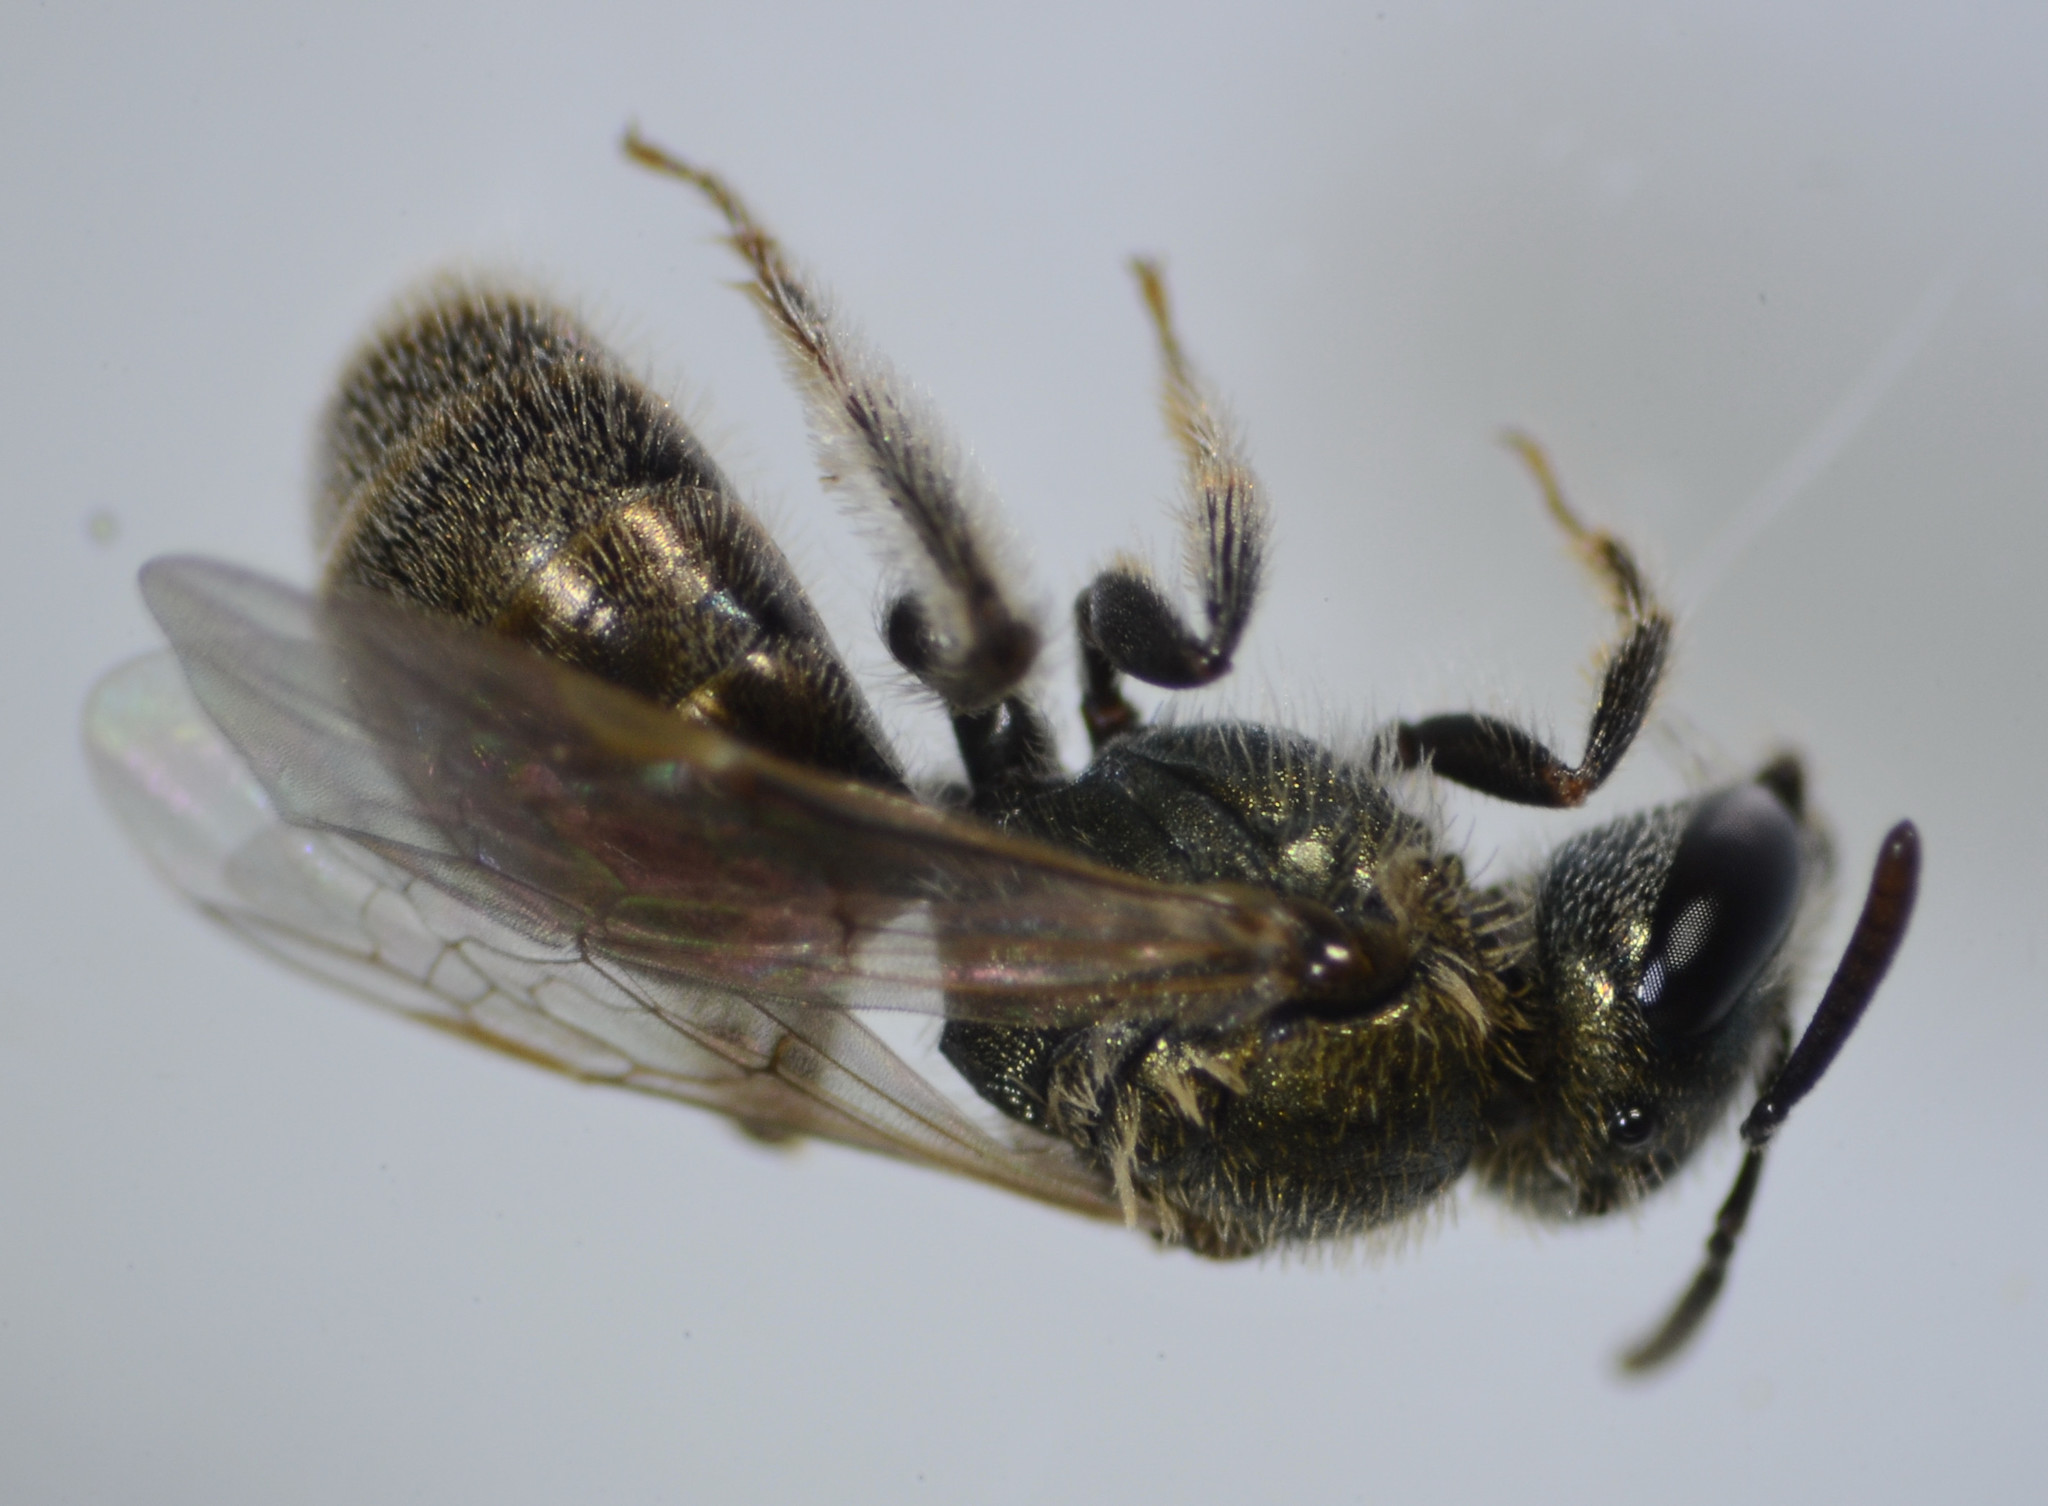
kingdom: Animalia
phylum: Arthropoda
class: Insecta
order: Hymenoptera
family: Halictidae
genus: Lasioglossum
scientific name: Lasioglossum incompletum
